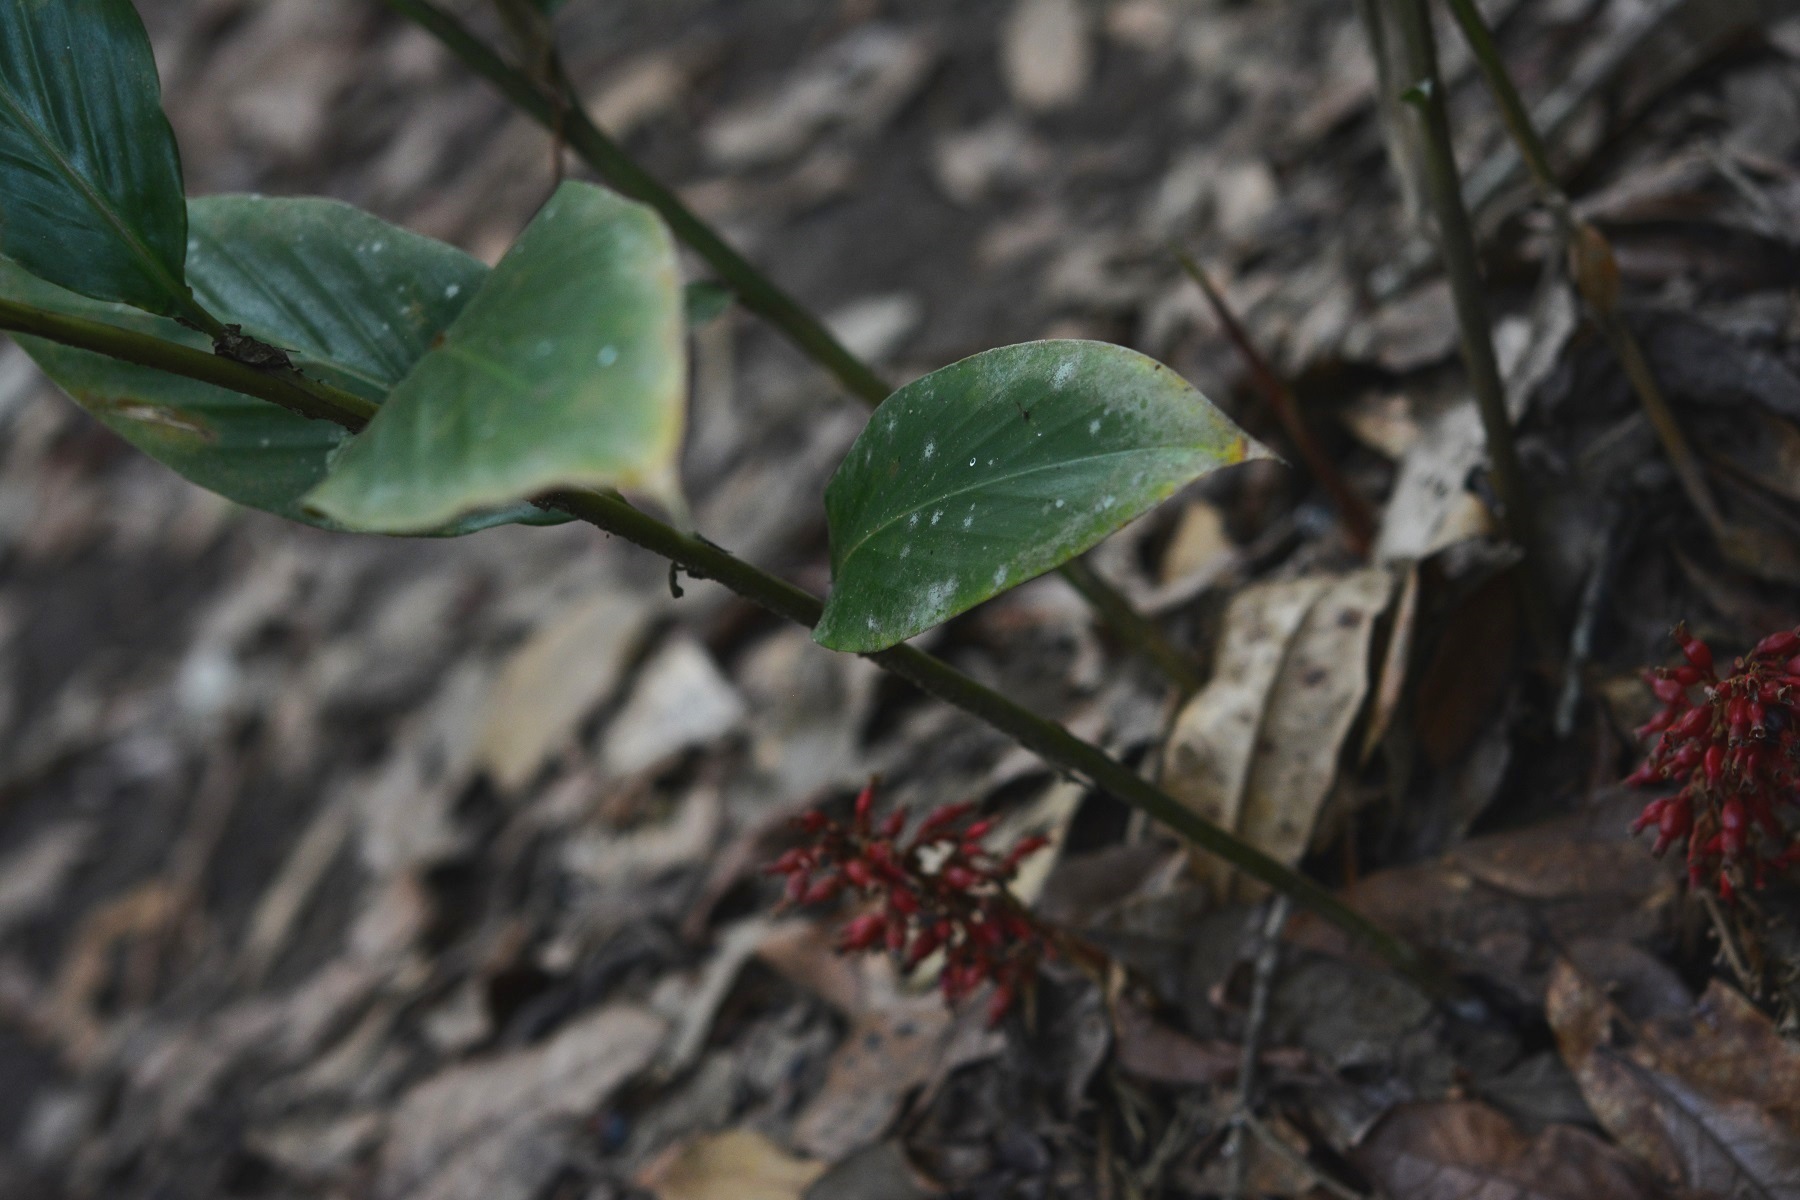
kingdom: Plantae
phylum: Tracheophyta
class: Liliopsida
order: Zingiberales
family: Zingiberaceae
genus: Renealmia
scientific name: Renealmia mexicana
